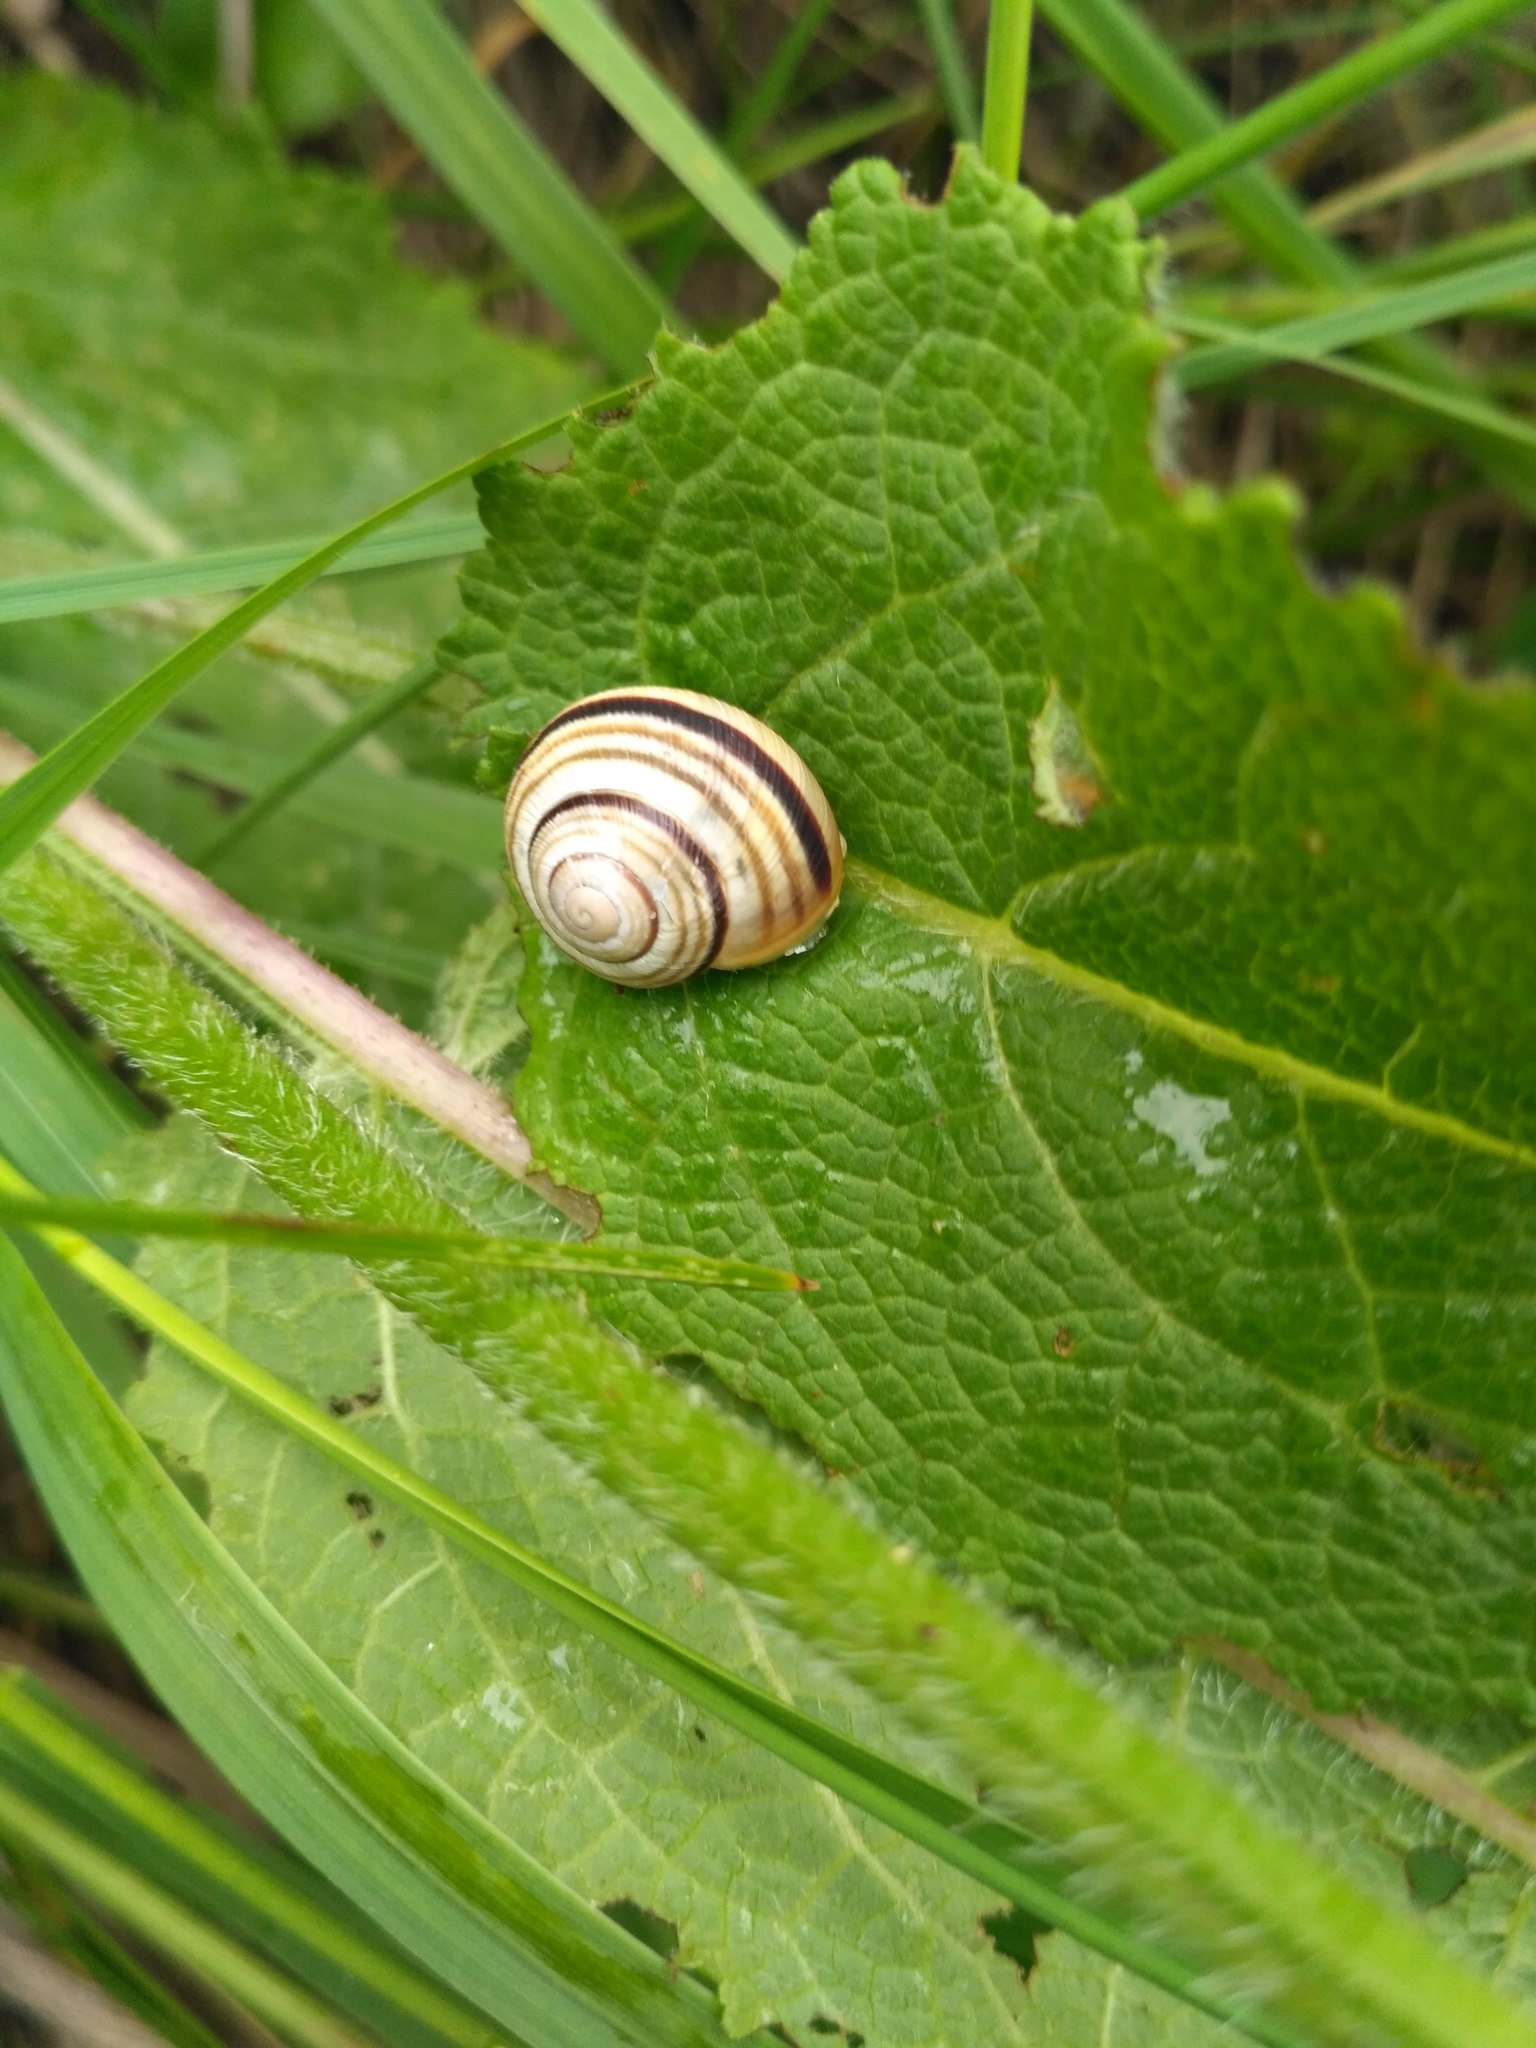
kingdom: Animalia
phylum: Mollusca
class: Gastropoda
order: Stylommatophora
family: Helicidae
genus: Caucasotachea
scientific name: Caucasotachea vindobonensis
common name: European helicid land snail
